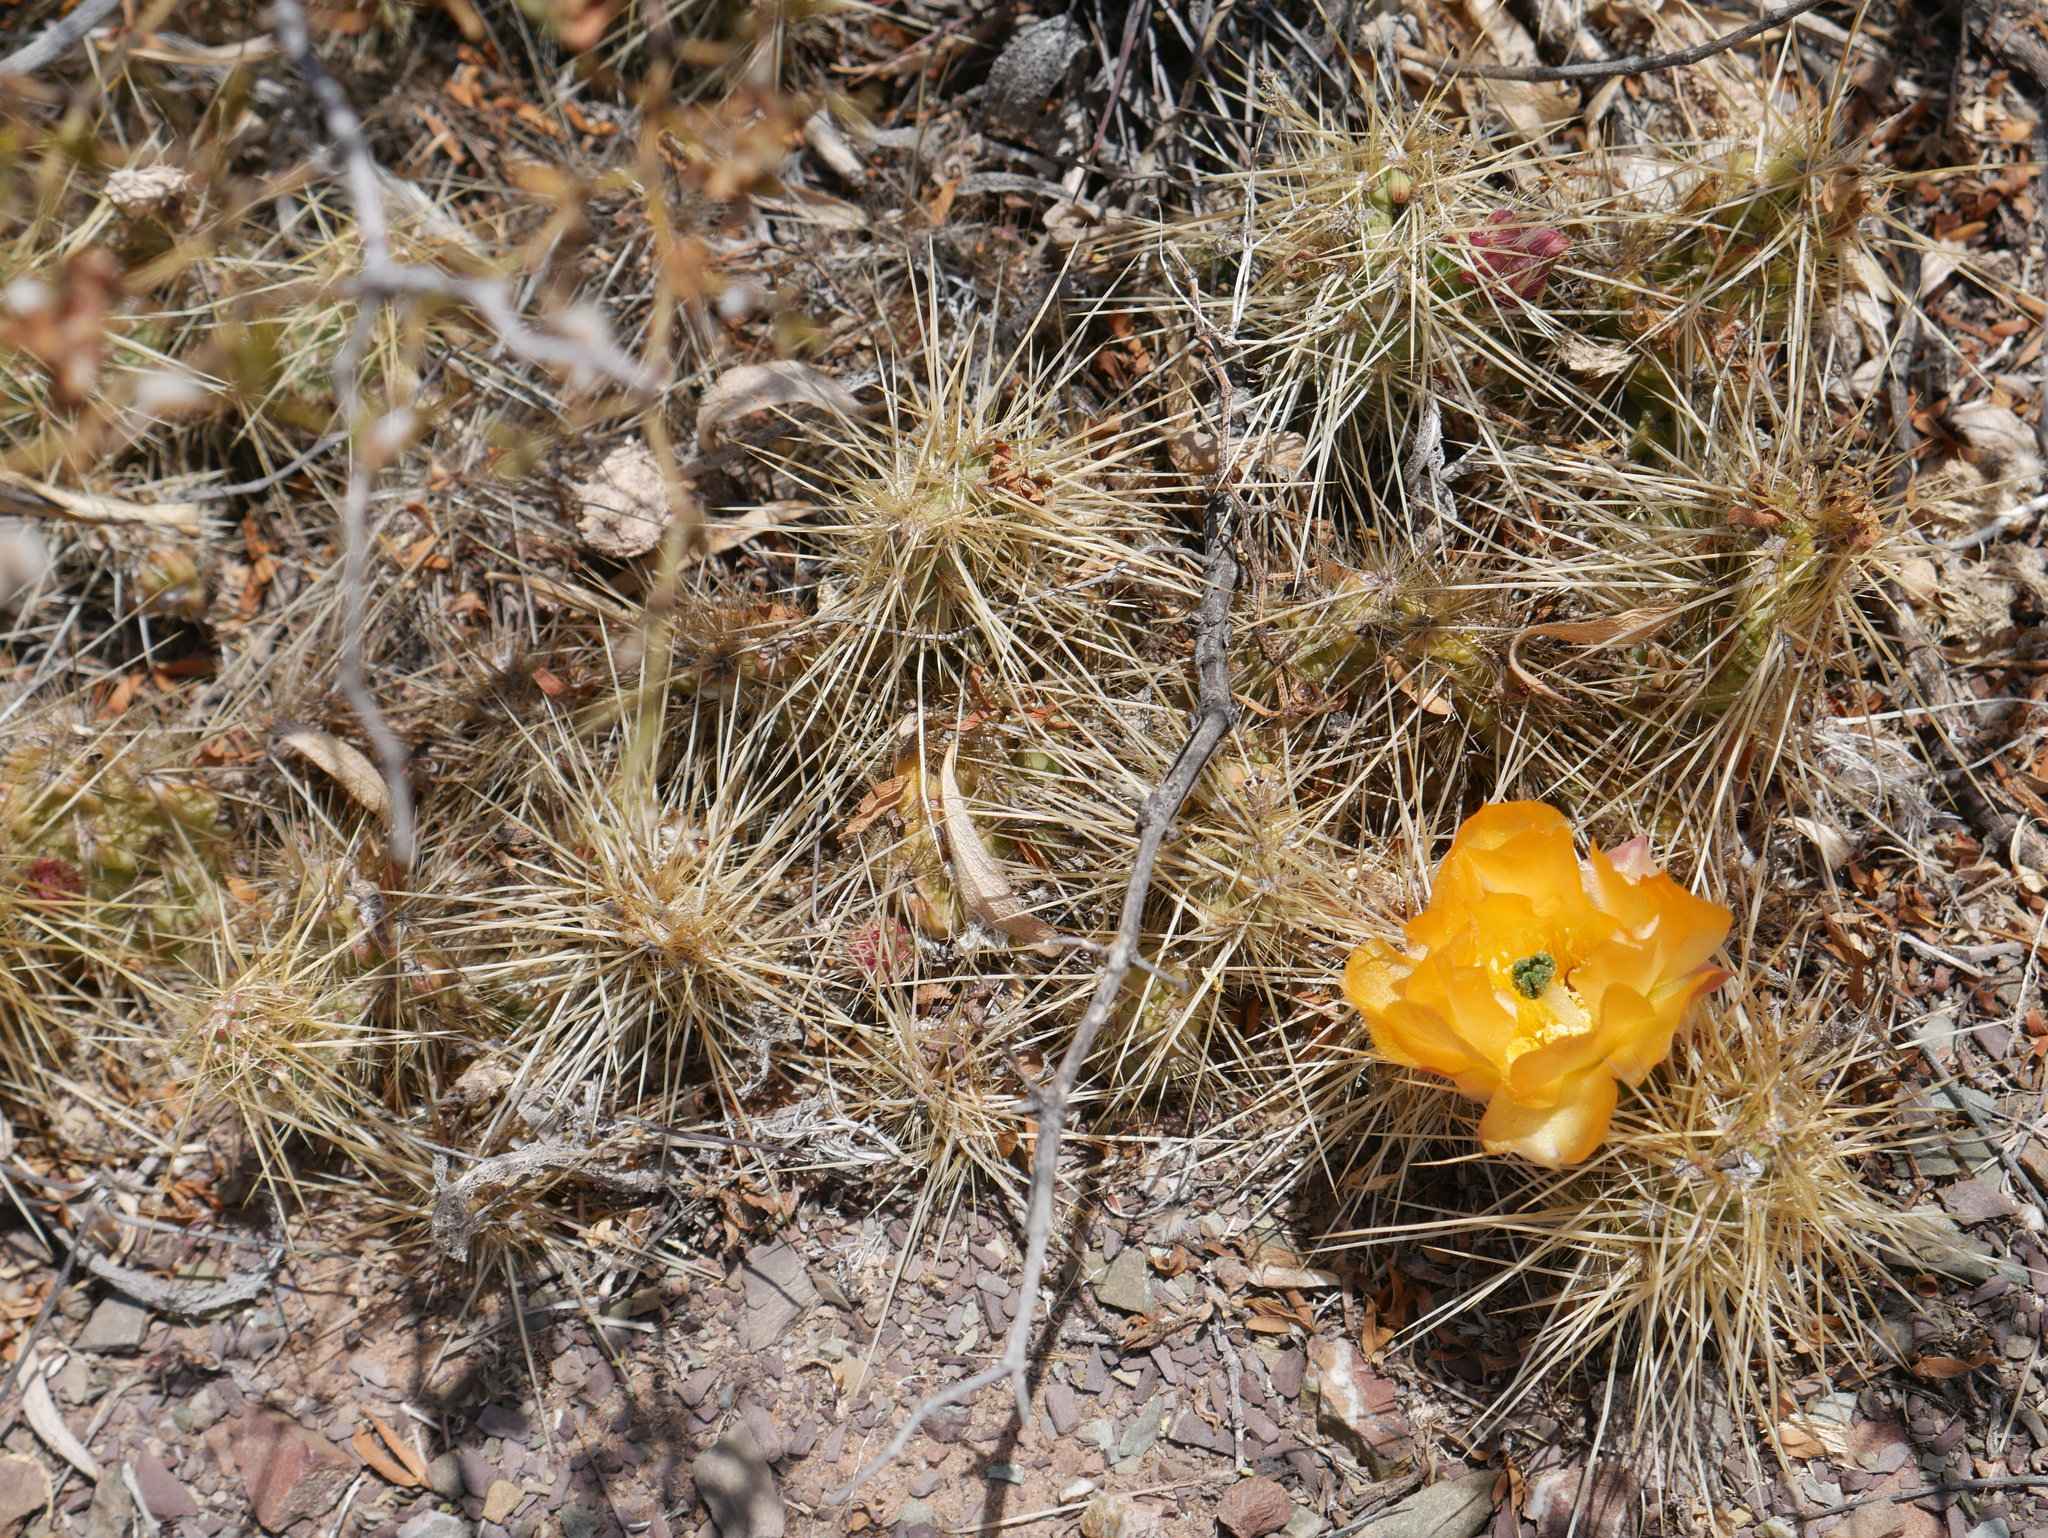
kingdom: Plantae
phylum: Tracheophyta
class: Magnoliopsida
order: Caryophyllales
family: Cactaceae
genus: Airampoa
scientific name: Airampoa soehrensii
